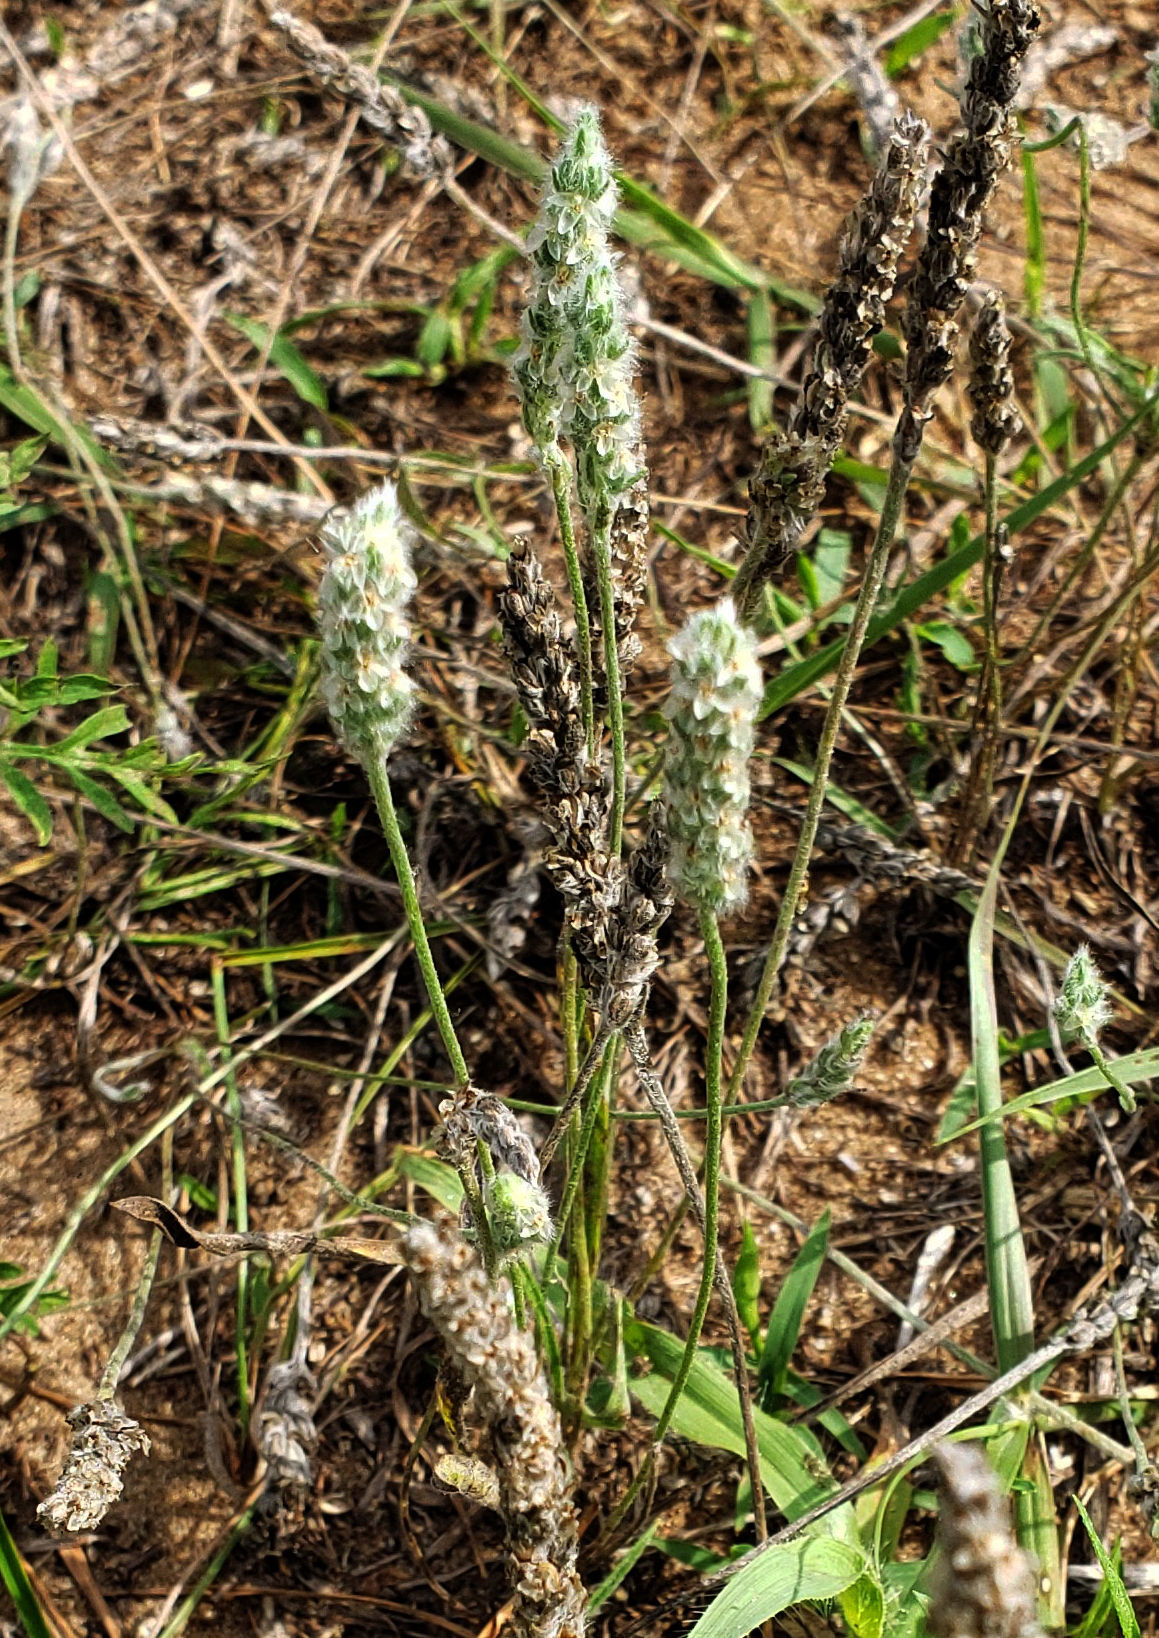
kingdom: Plantae
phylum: Tracheophyta
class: Magnoliopsida
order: Lamiales
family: Plantaginaceae
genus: Plantago
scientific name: Plantago patagonica
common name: Patagonia indian-wheat
